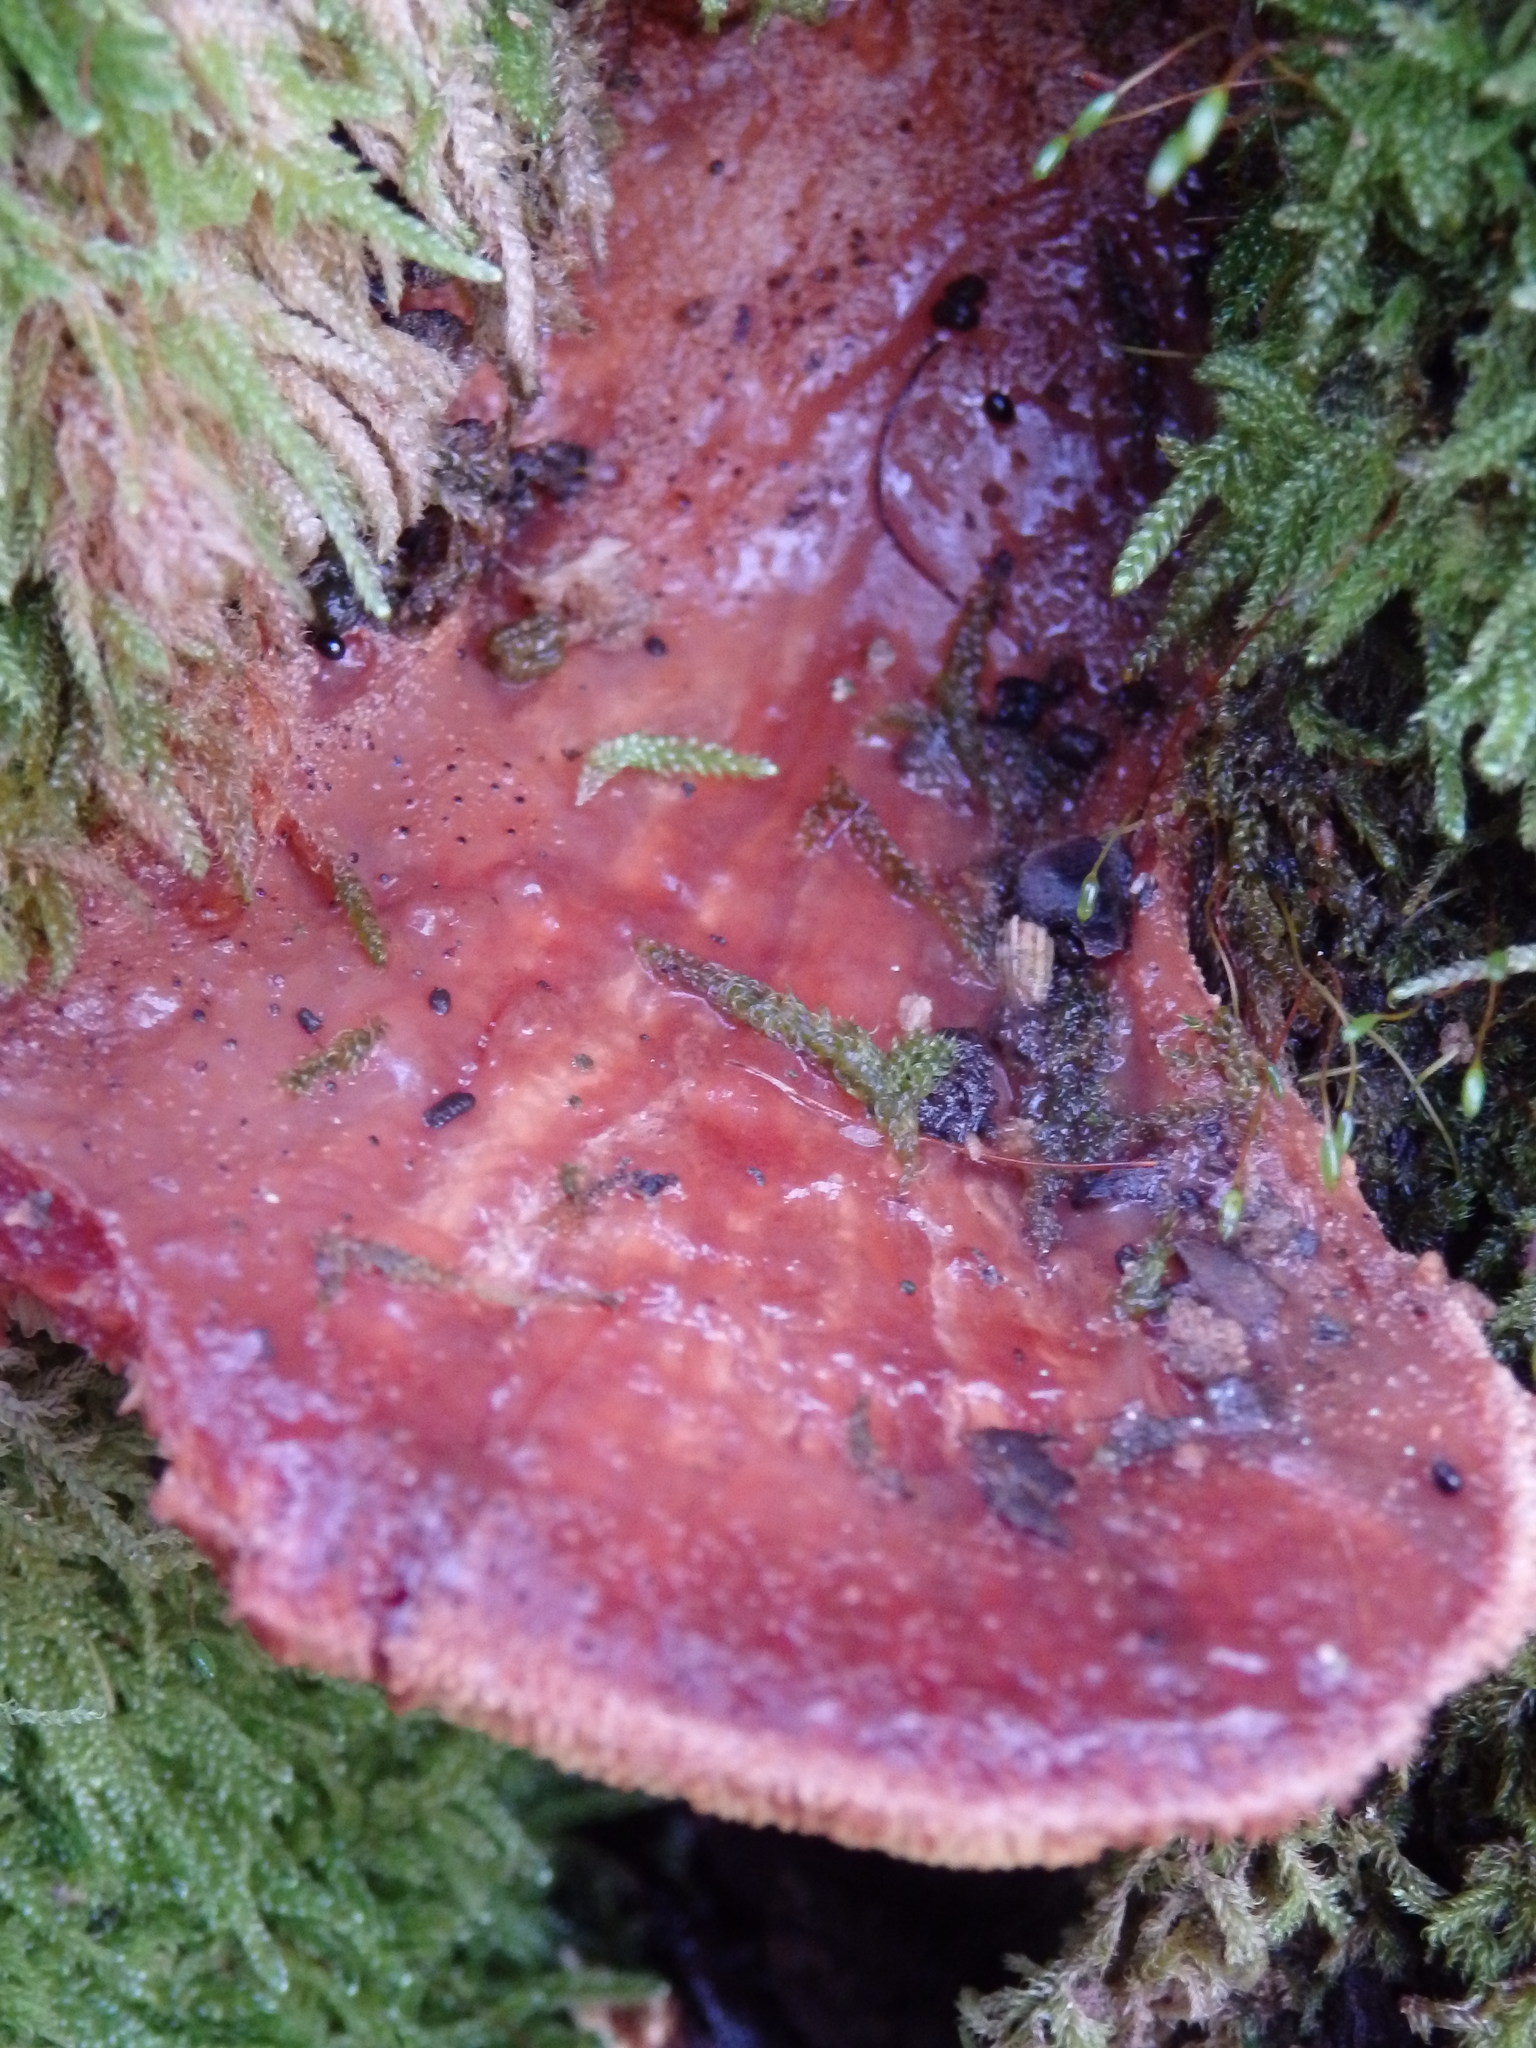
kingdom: Fungi
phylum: Basidiomycota
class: Agaricomycetes
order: Agaricales
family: Fistulinaceae
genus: Fistulina
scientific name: Fistulina hepatica
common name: Beef-steak fungus
